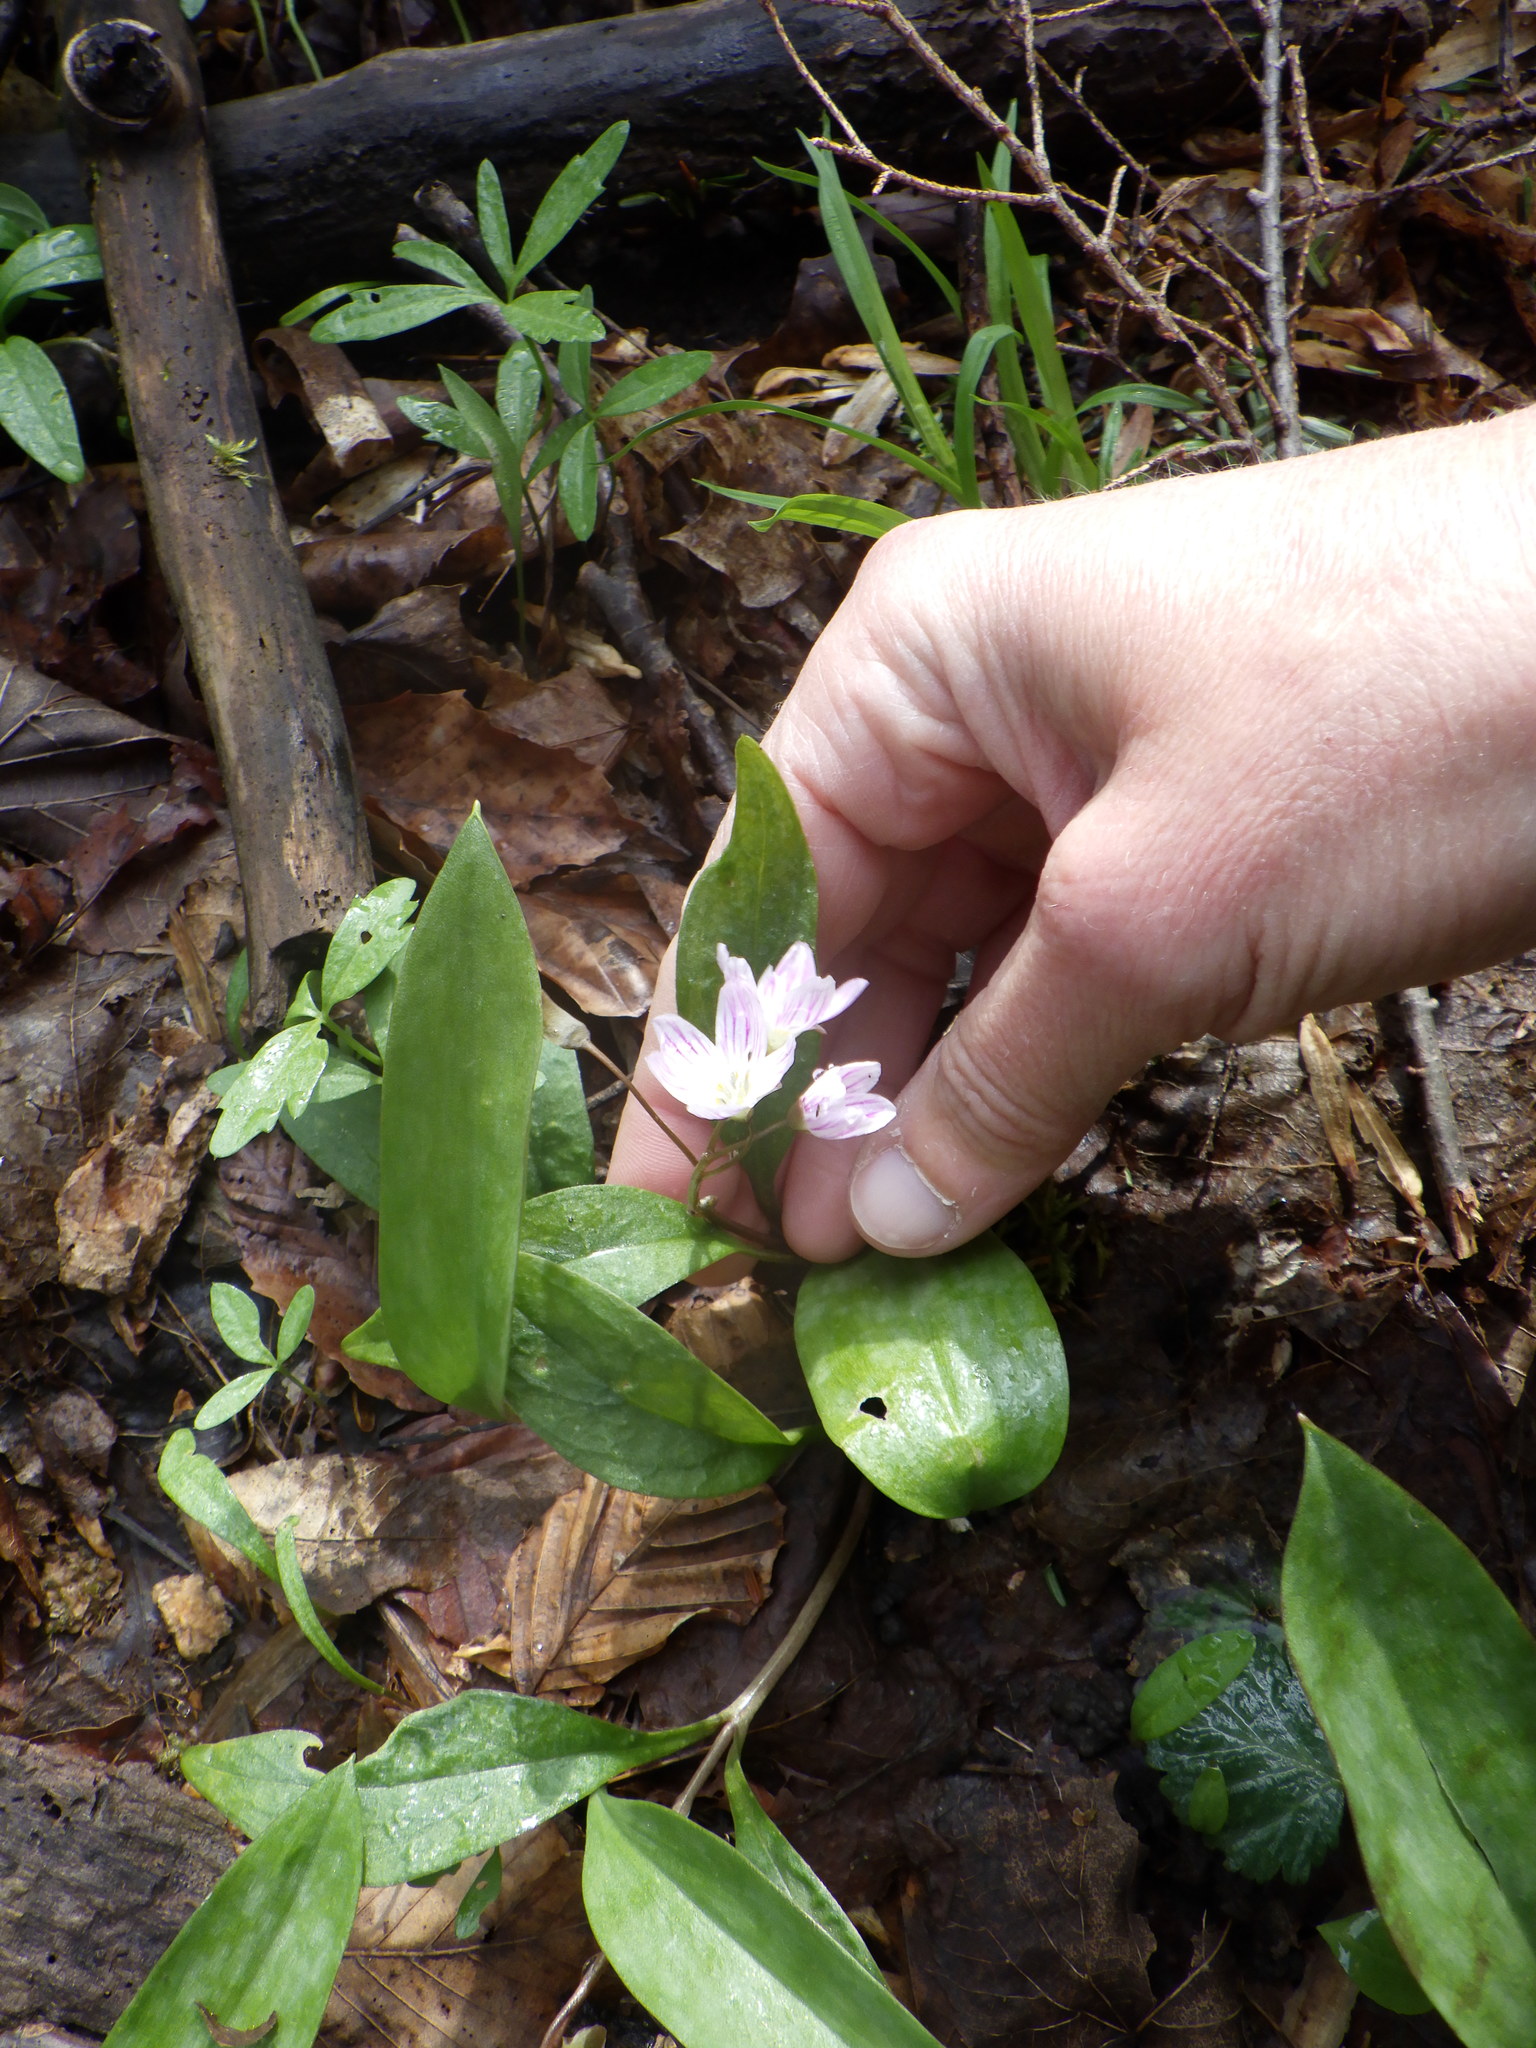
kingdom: Plantae
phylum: Tracheophyta
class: Magnoliopsida
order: Caryophyllales
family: Montiaceae
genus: Claytonia
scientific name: Claytonia caroliniana
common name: Carolina spring beauty
